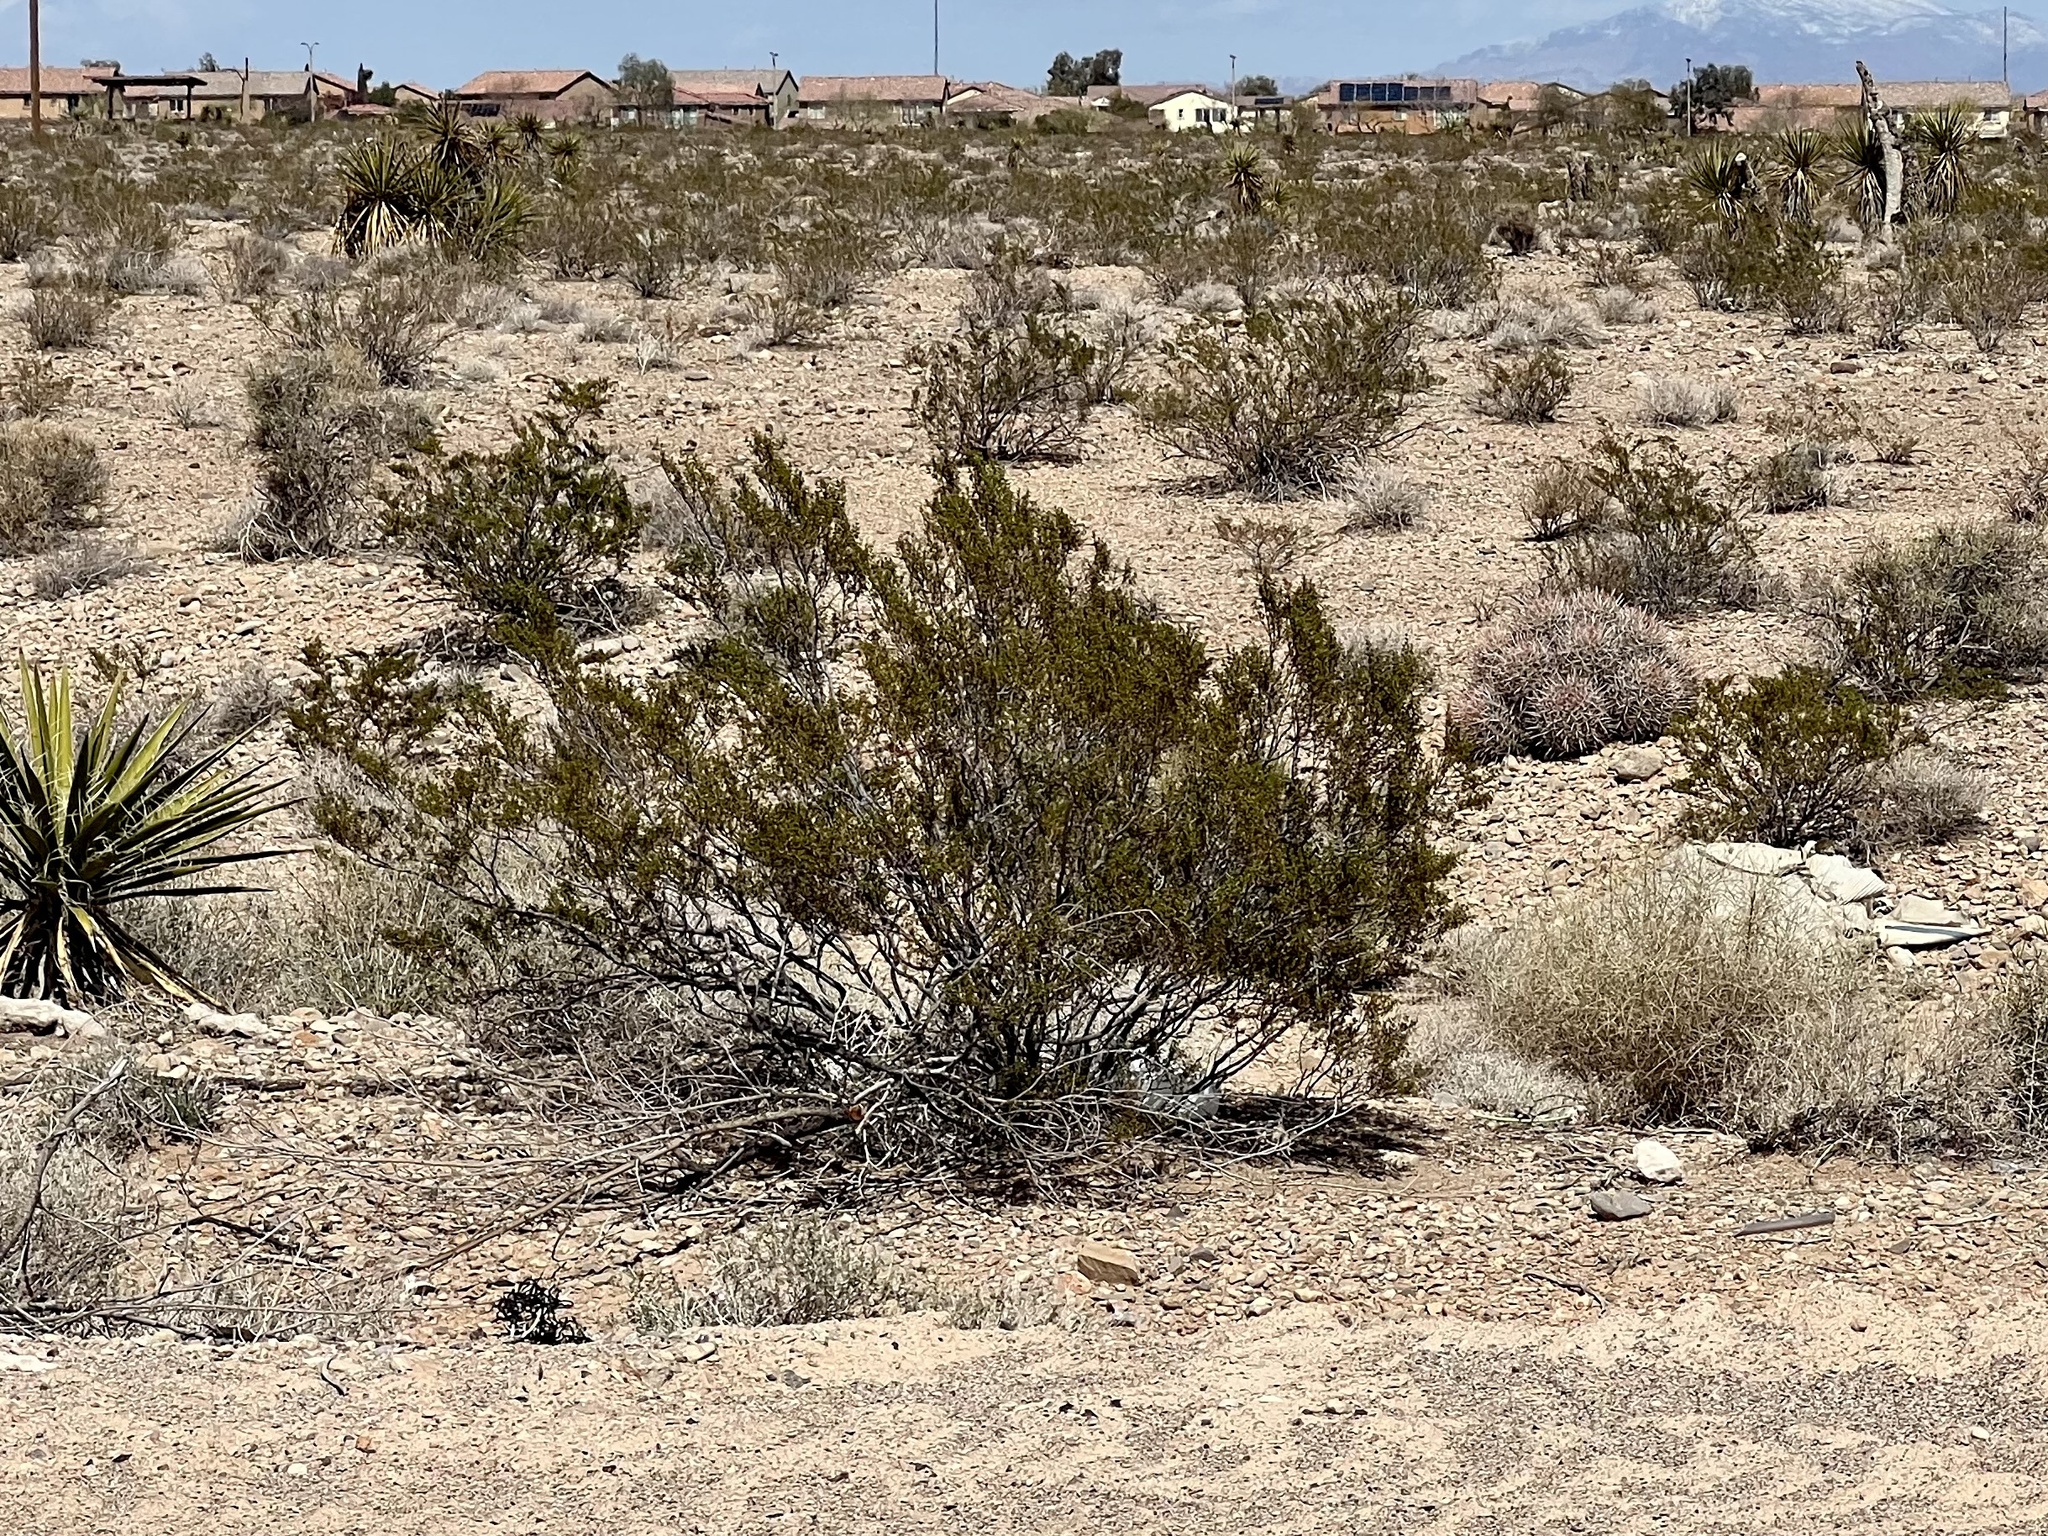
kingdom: Plantae
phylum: Tracheophyta
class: Magnoliopsida
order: Zygophyllales
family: Zygophyllaceae
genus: Larrea
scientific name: Larrea tridentata
